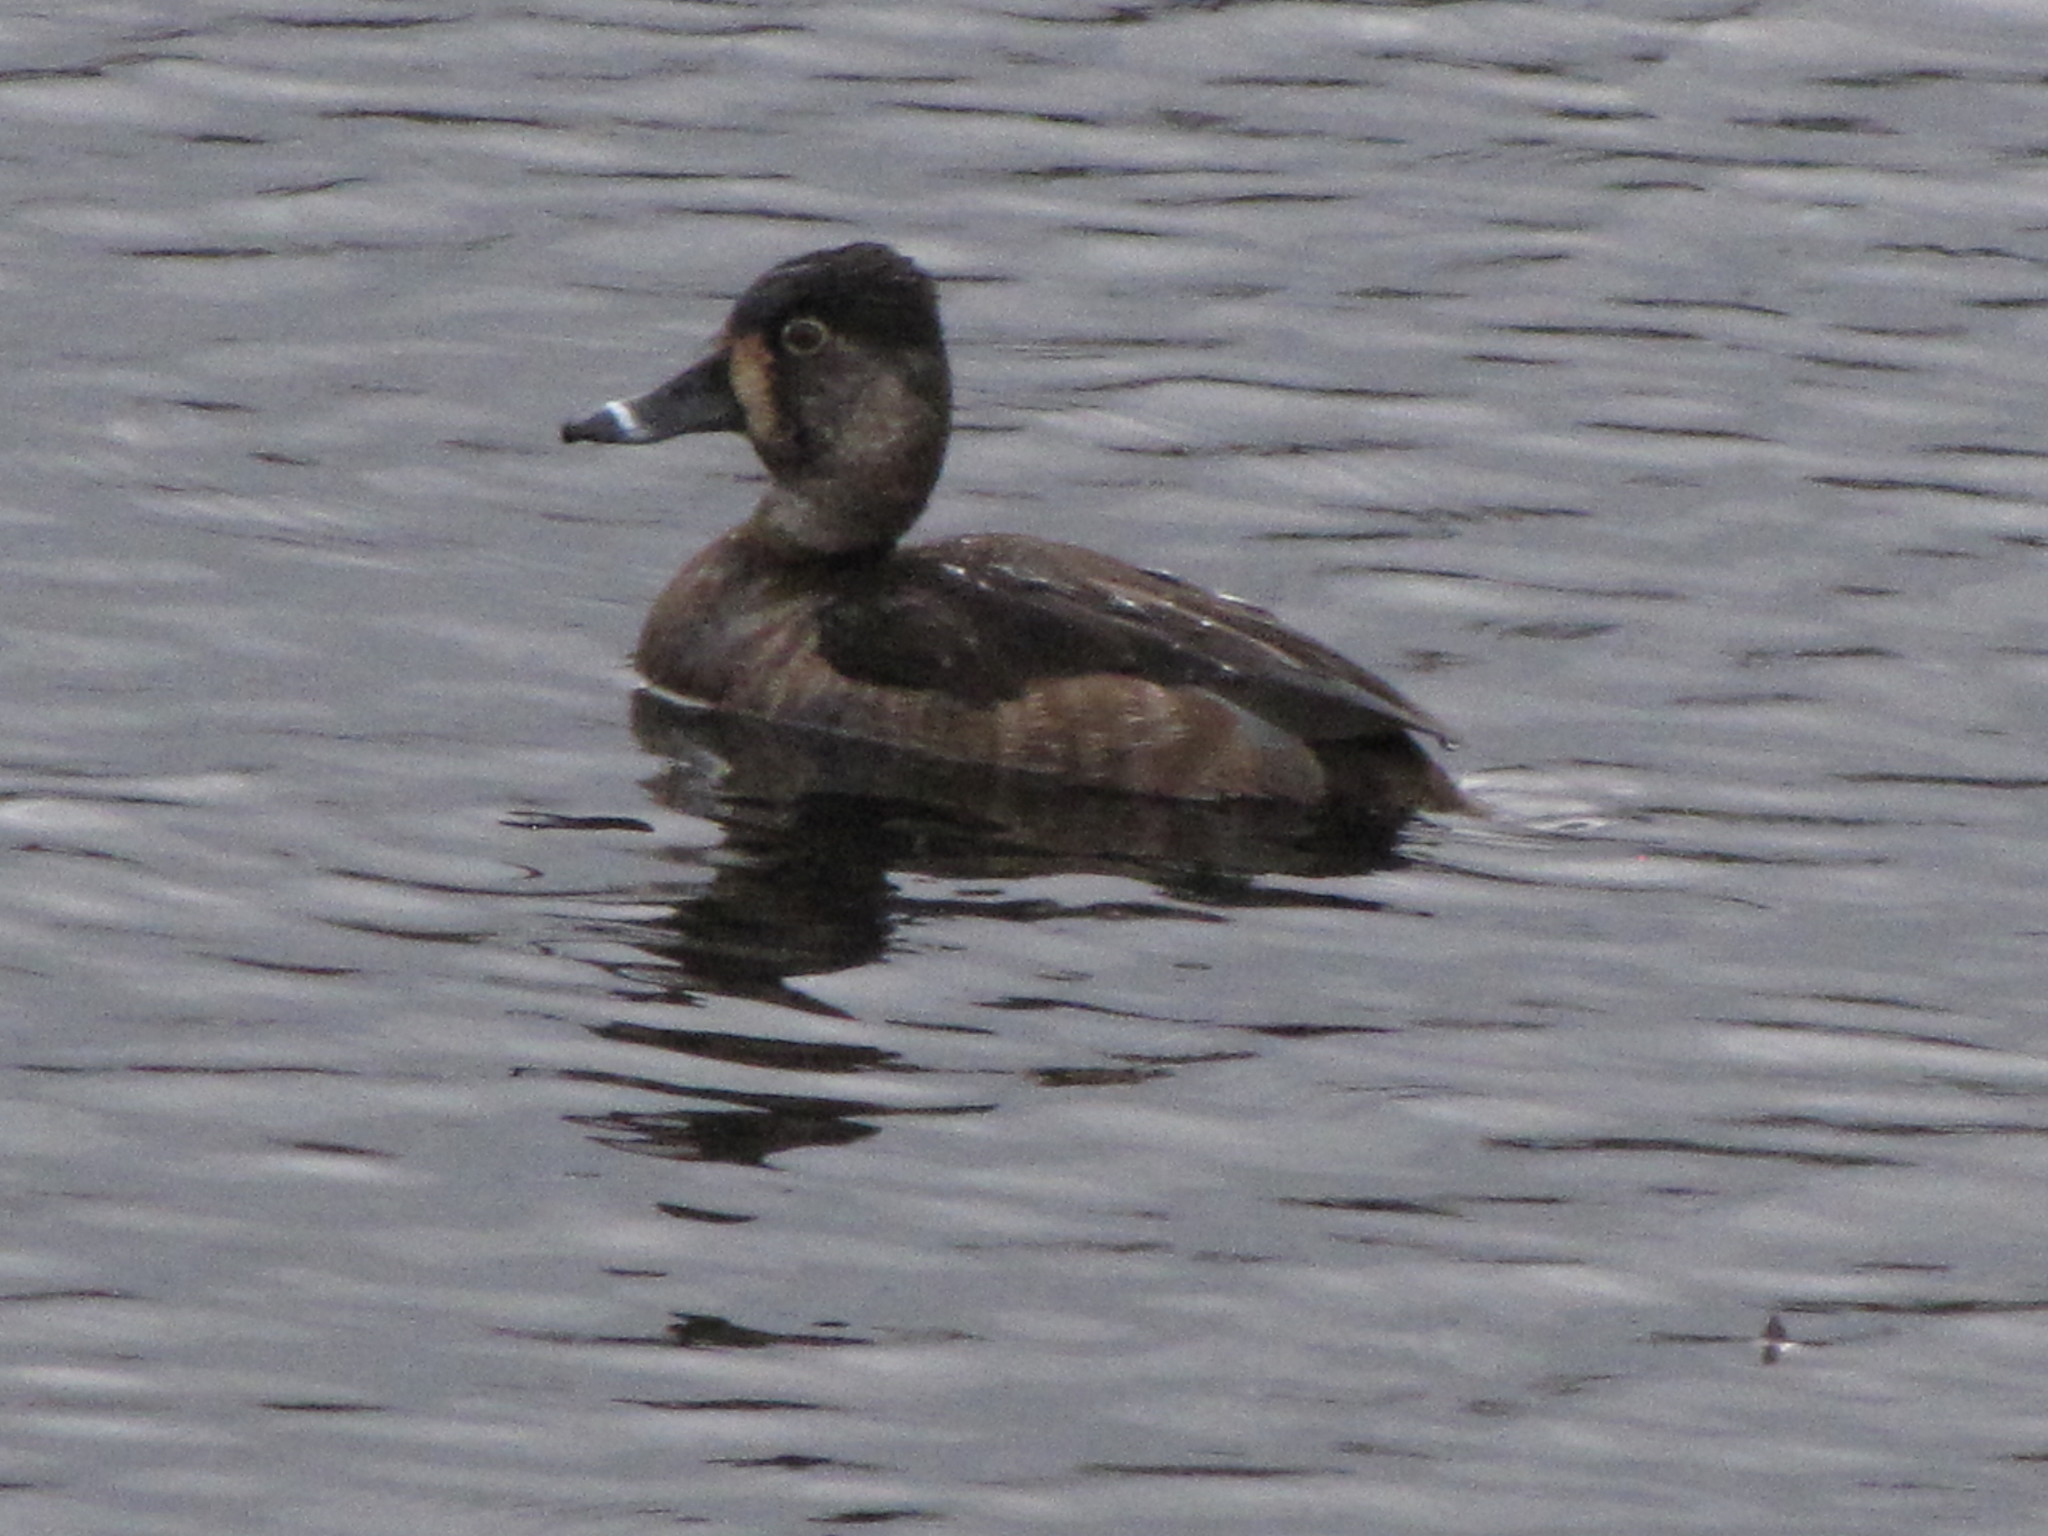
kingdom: Animalia
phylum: Chordata
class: Aves
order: Anseriformes
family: Anatidae
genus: Aythya
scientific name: Aythya collaris
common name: Ring-necked duck
